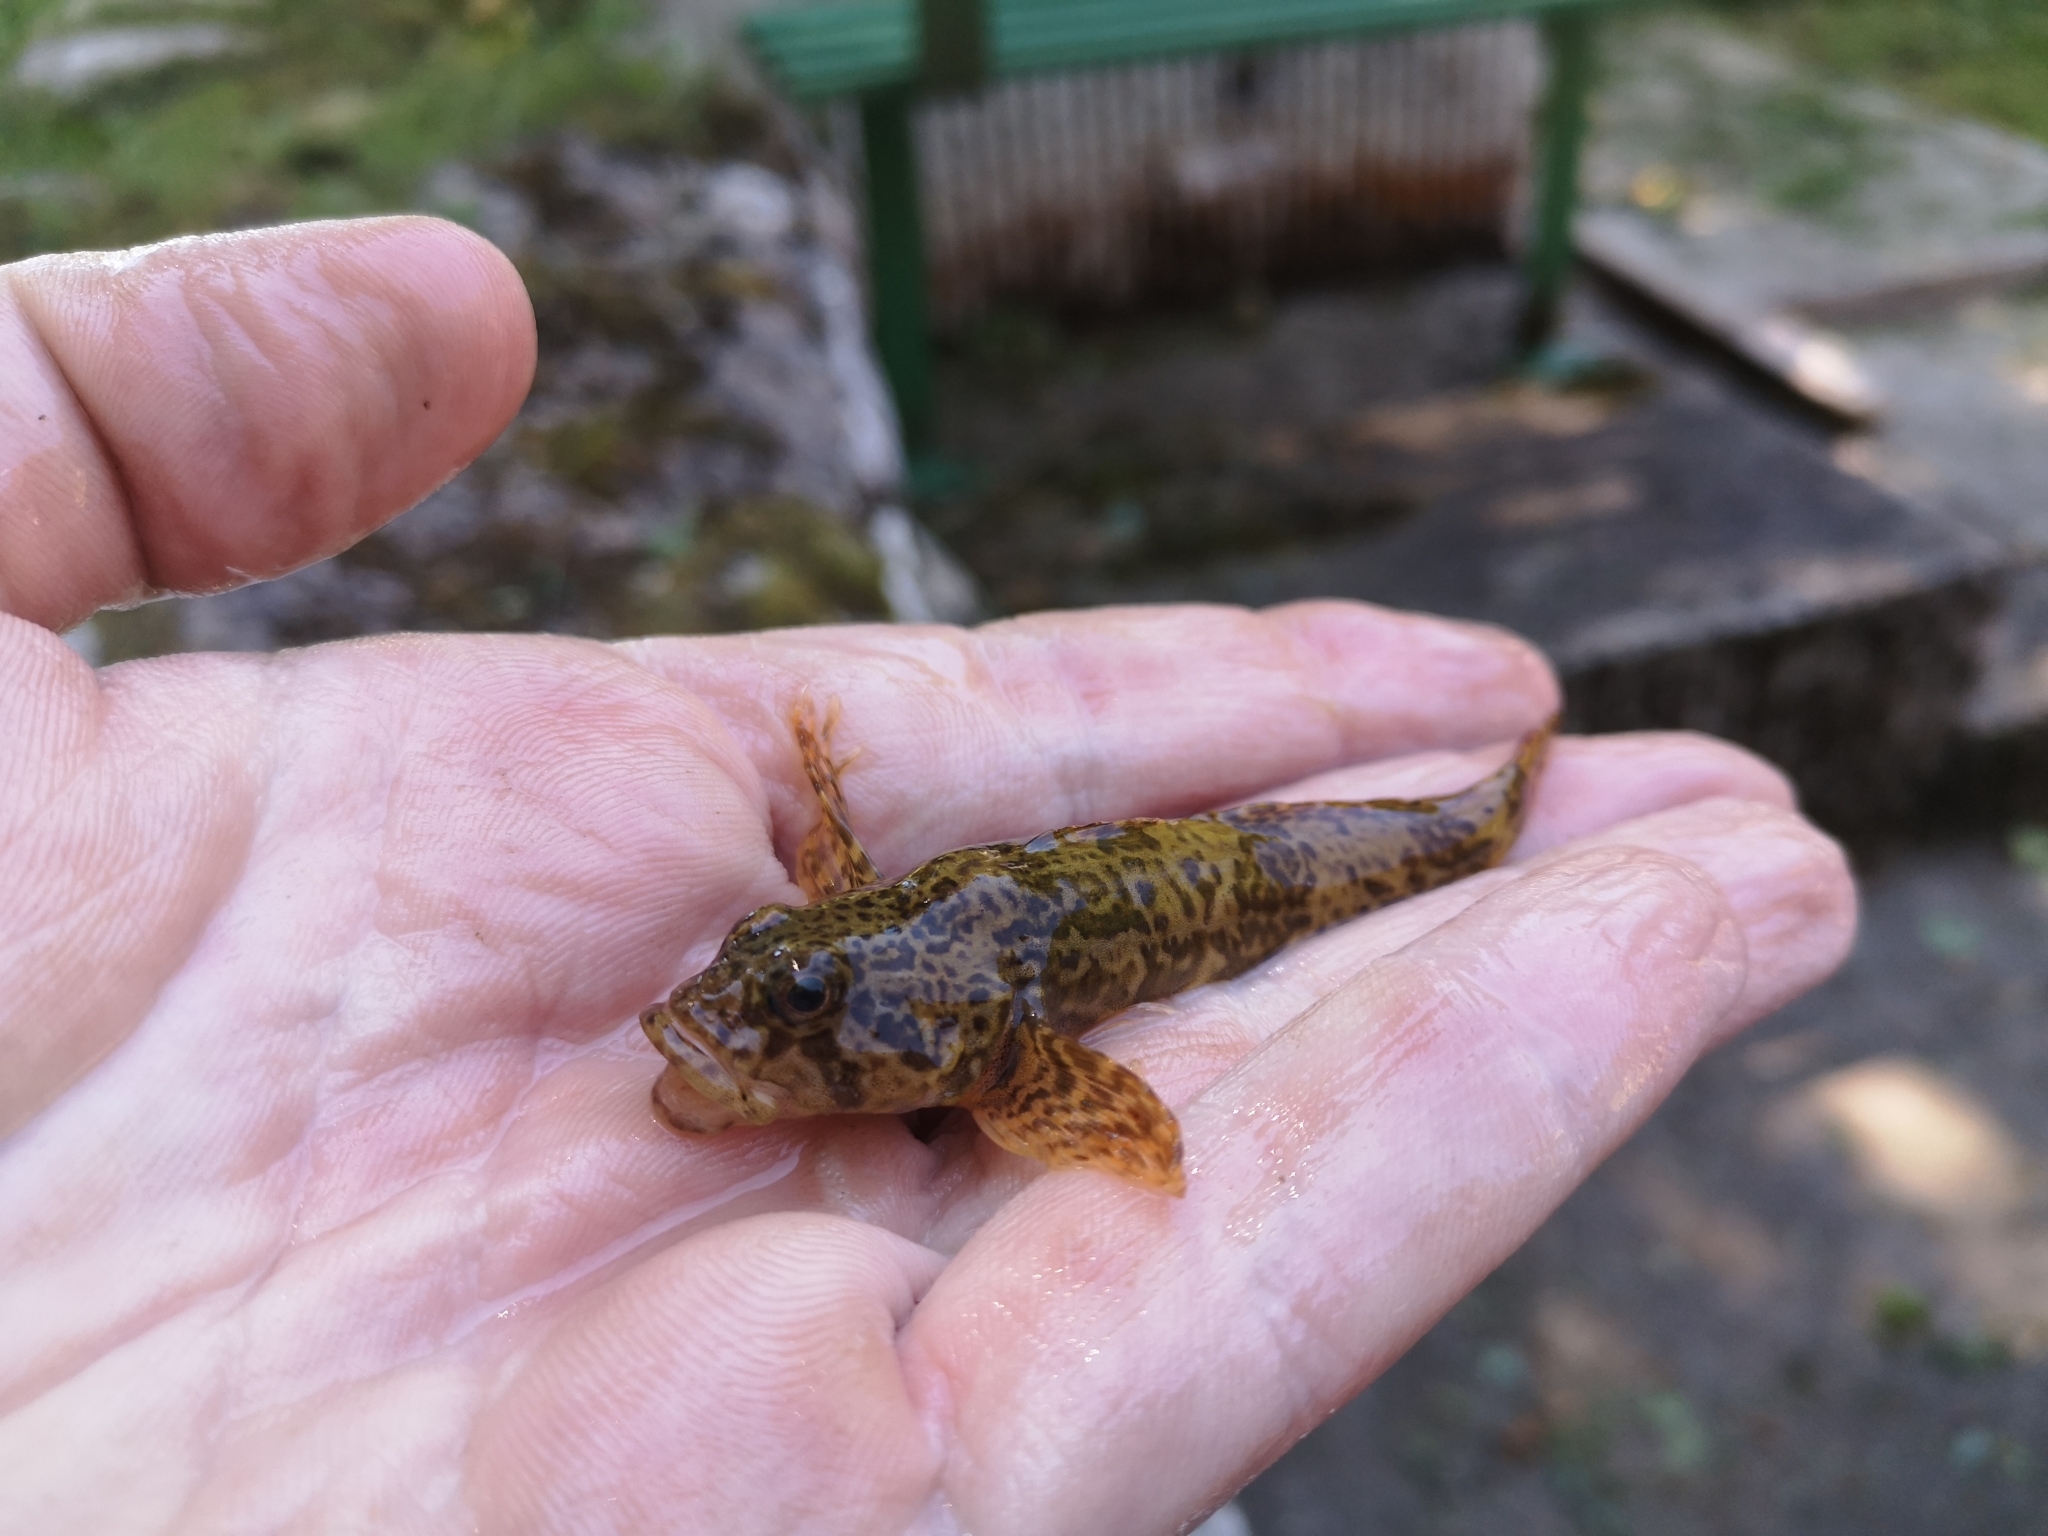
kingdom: Animalia
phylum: Chordata
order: Scorpaeniformes
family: Cottidae
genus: Cottus
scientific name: Cottus gobio
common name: Bullhead
